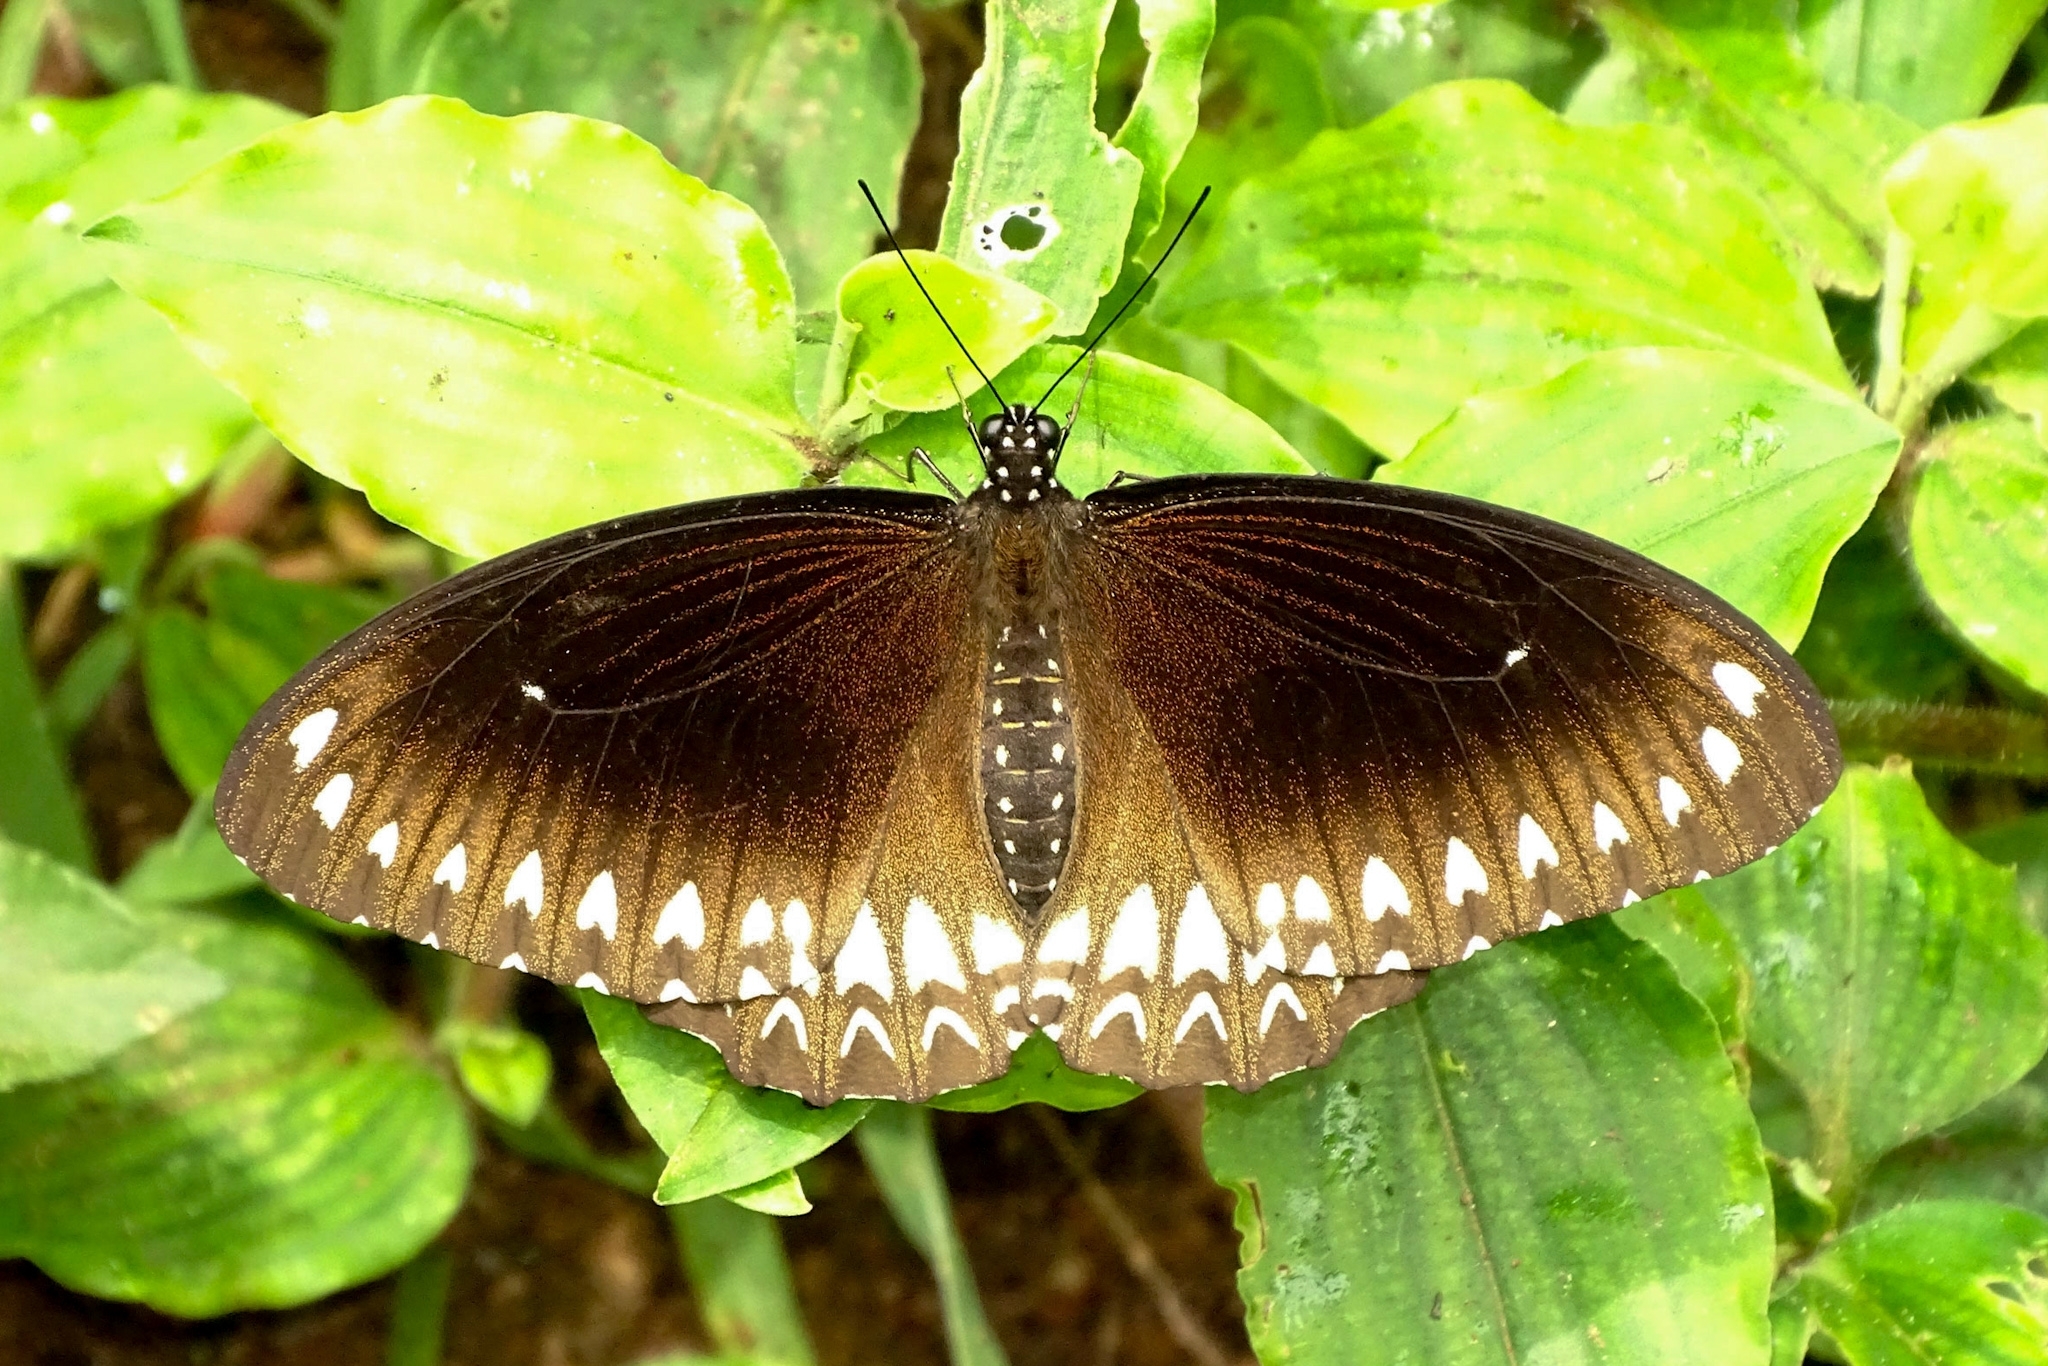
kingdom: Animalia
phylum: Arthropoda
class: Insecta
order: Lepidoptera
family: Papilionidae
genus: Papilio
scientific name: Papilio dravidarum
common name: Malabar raven
